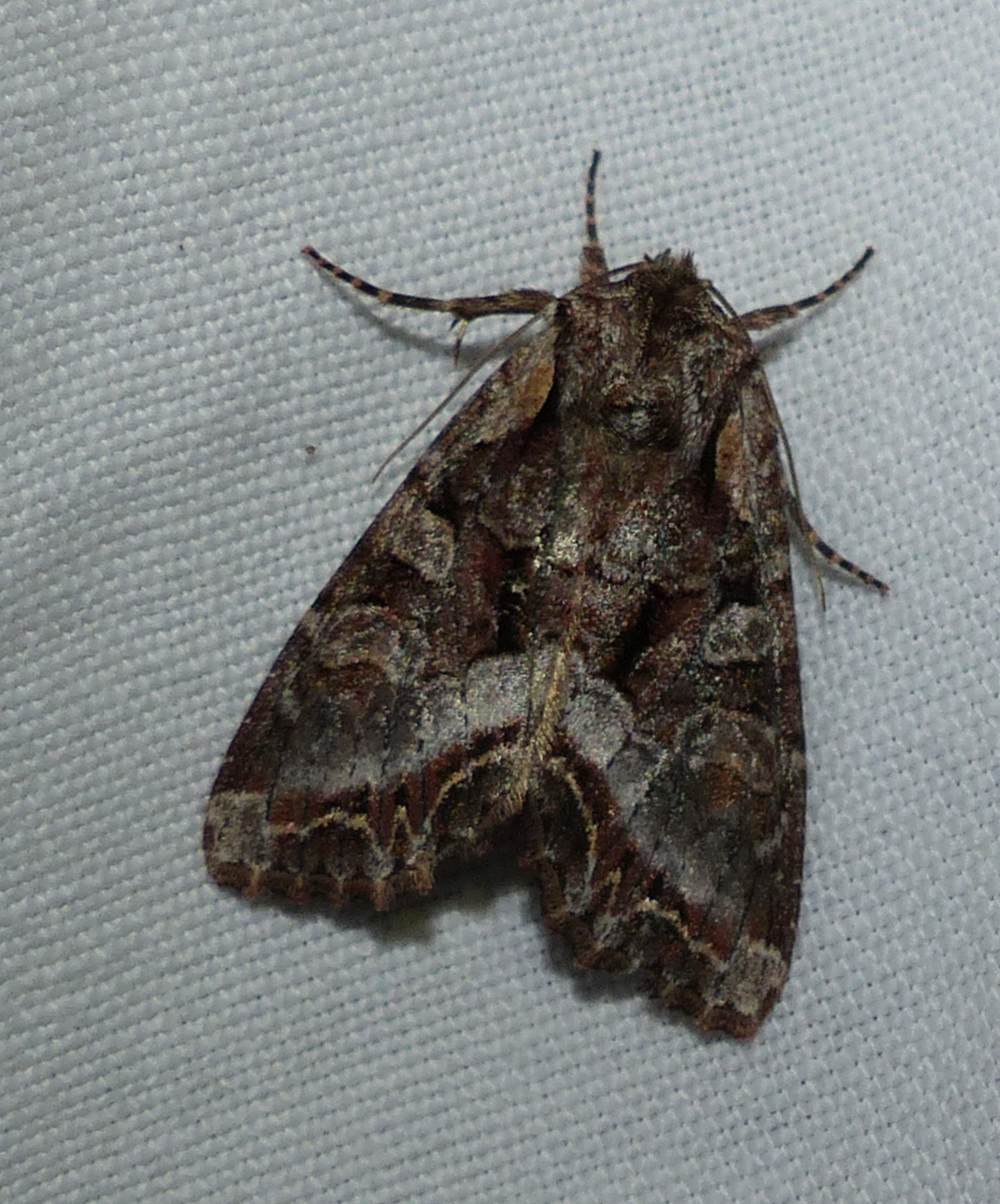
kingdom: Animalia
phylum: Arthropoda
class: Insecta
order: Lepidoptera
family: Noctuidae
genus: Lacanobia
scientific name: Lacanobia grandis
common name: Grand arches moth
